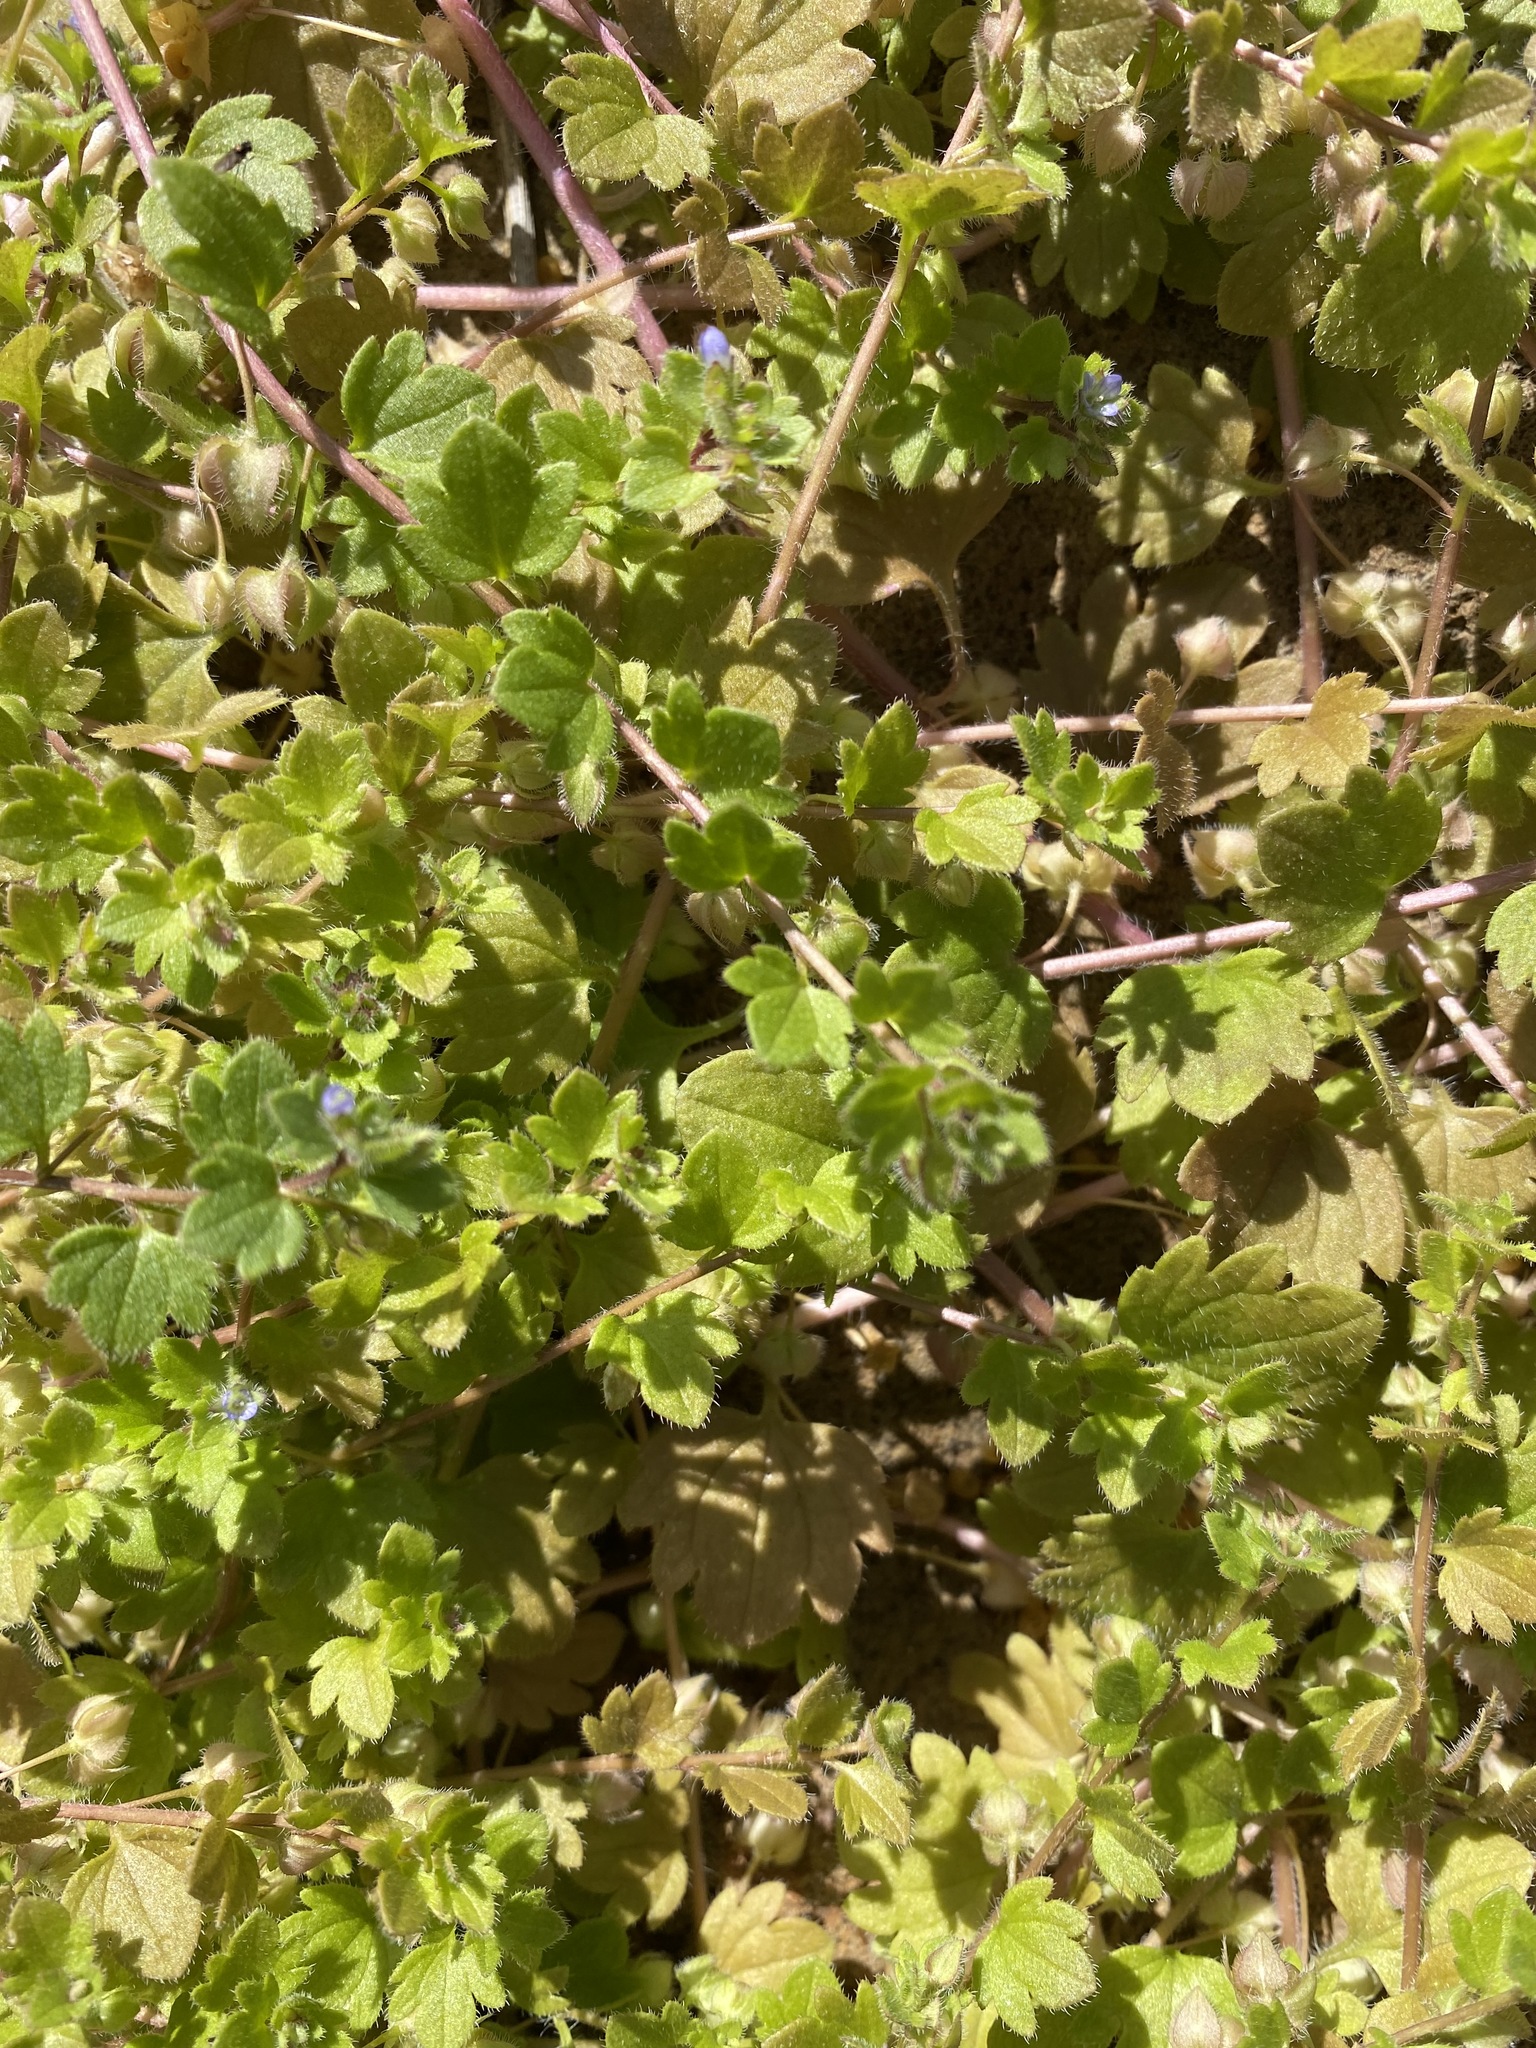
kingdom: Plantae
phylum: Tracheophyta
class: Magnoliopsida
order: Lamiales
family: Plantaginaceae
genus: Veronica
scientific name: Veronica hederifolia
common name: Ivy-leaved speedwell
